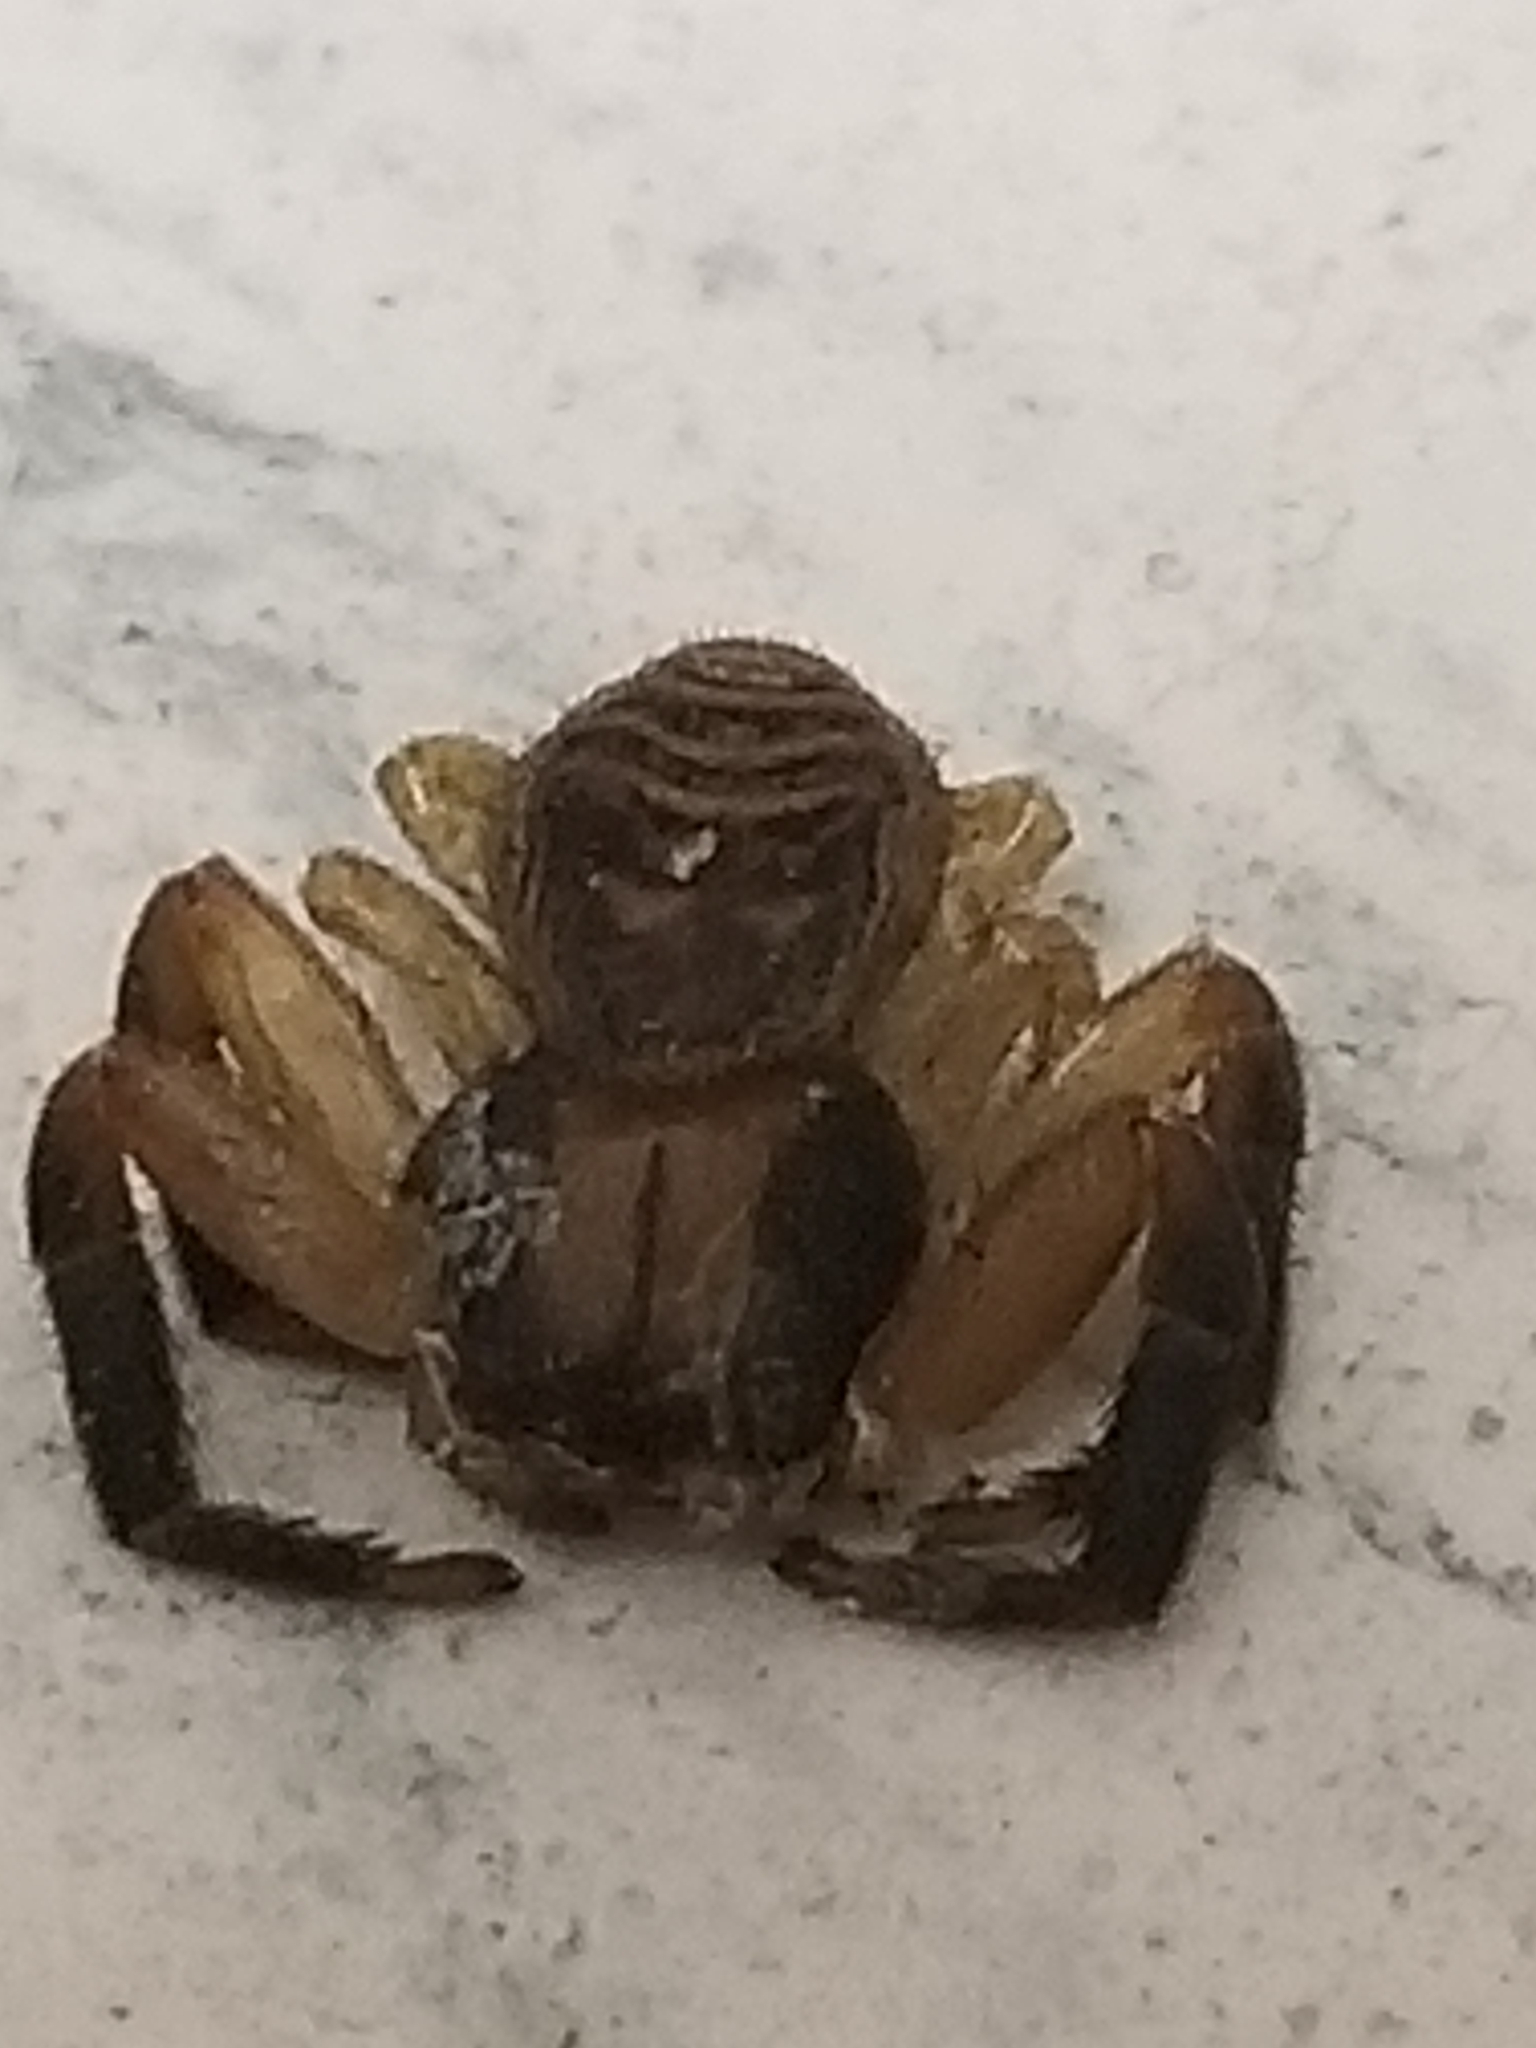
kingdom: Animalia
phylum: Arthropoda
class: Arachnida
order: Araneae
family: Thomisidae
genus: Xysticus
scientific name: Xysticus texanus
